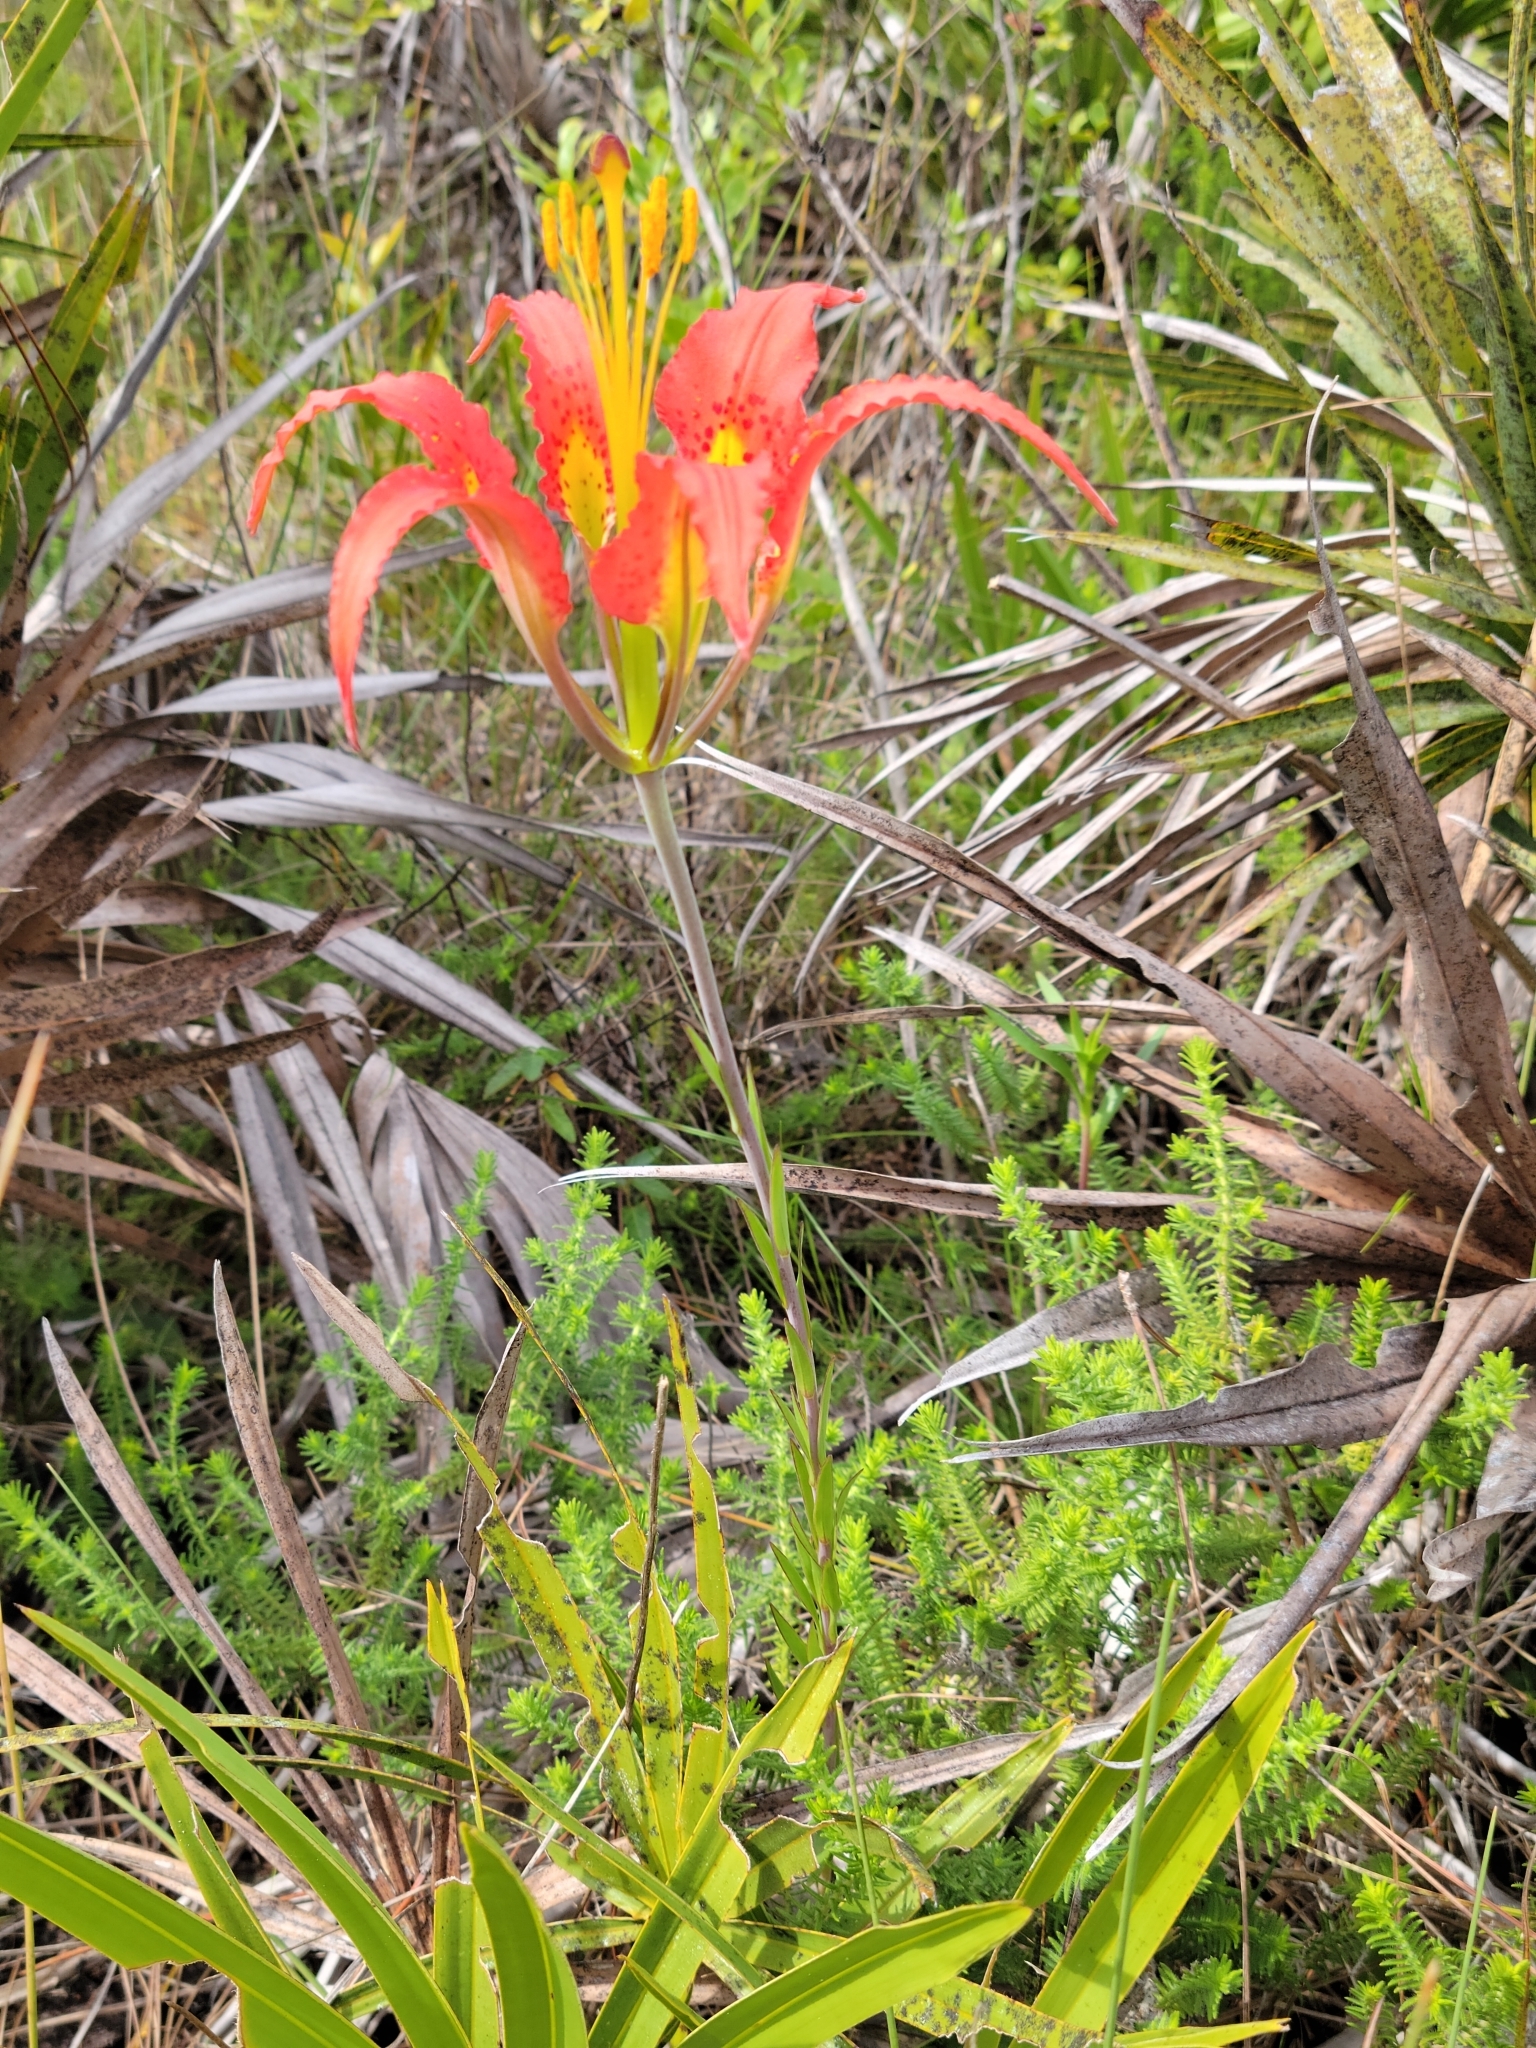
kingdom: Plantae
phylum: Tracheophyta
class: Liliopsida
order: Liliales
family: Liliaceae
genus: Lilium
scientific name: Lilium catesbaei
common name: Catesby's lily
